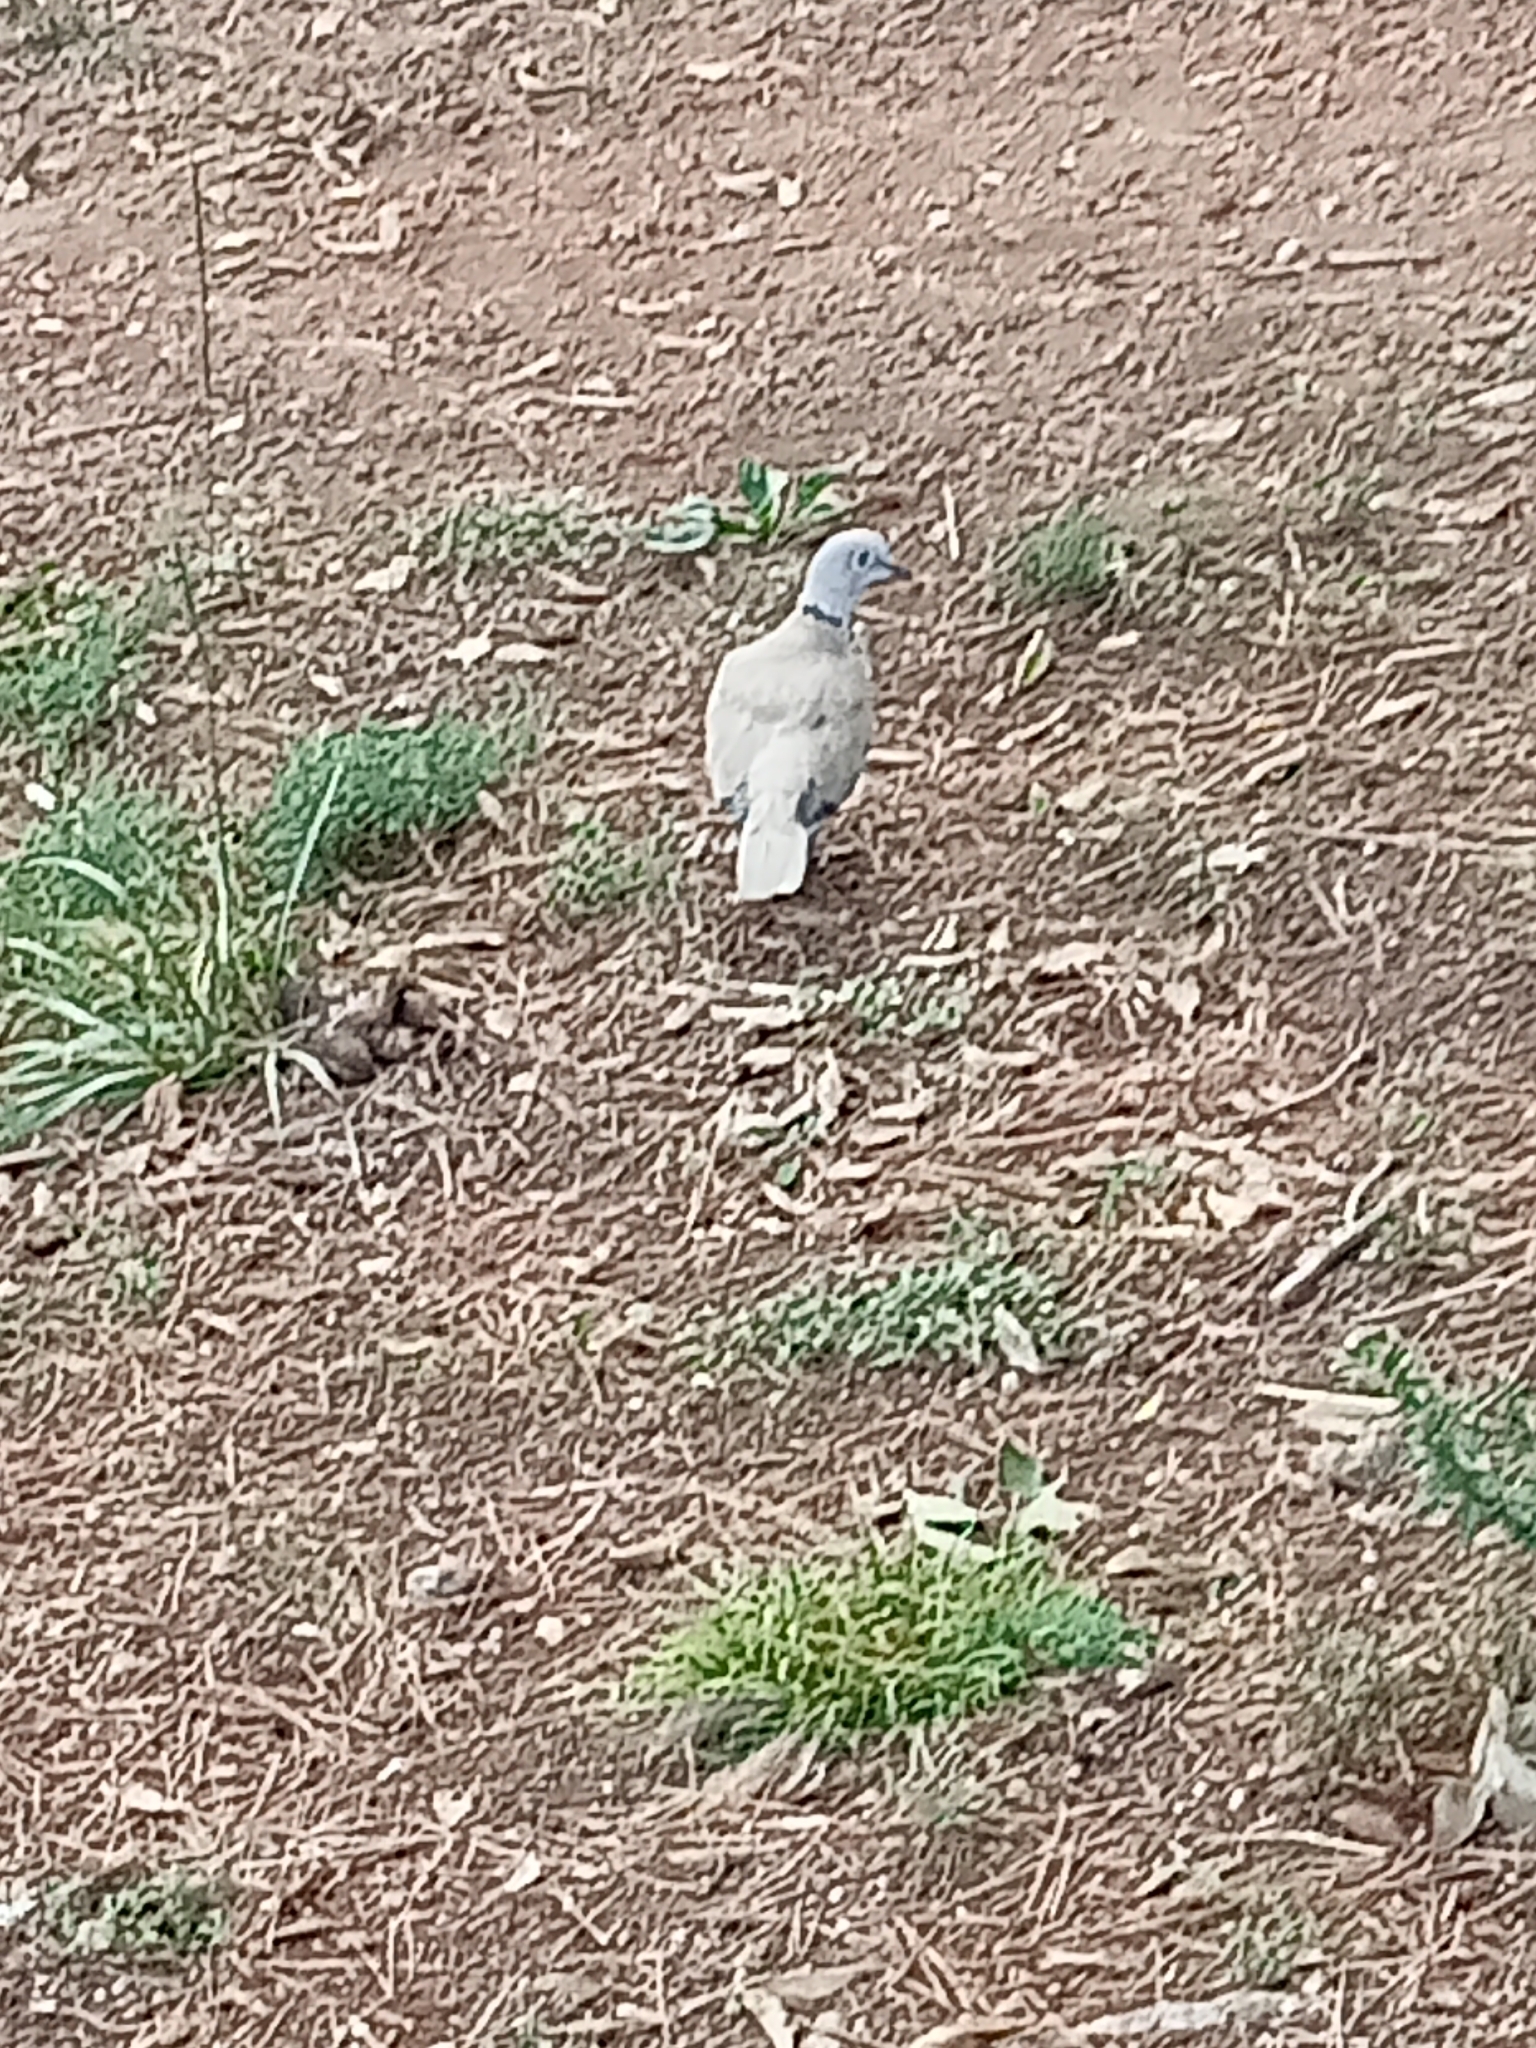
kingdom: Animalia
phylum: Chordata
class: Aves
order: Columbiformes
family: Columbidae
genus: Streptopelia
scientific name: Streptopelia decaocto
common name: Eurasian collared dove
